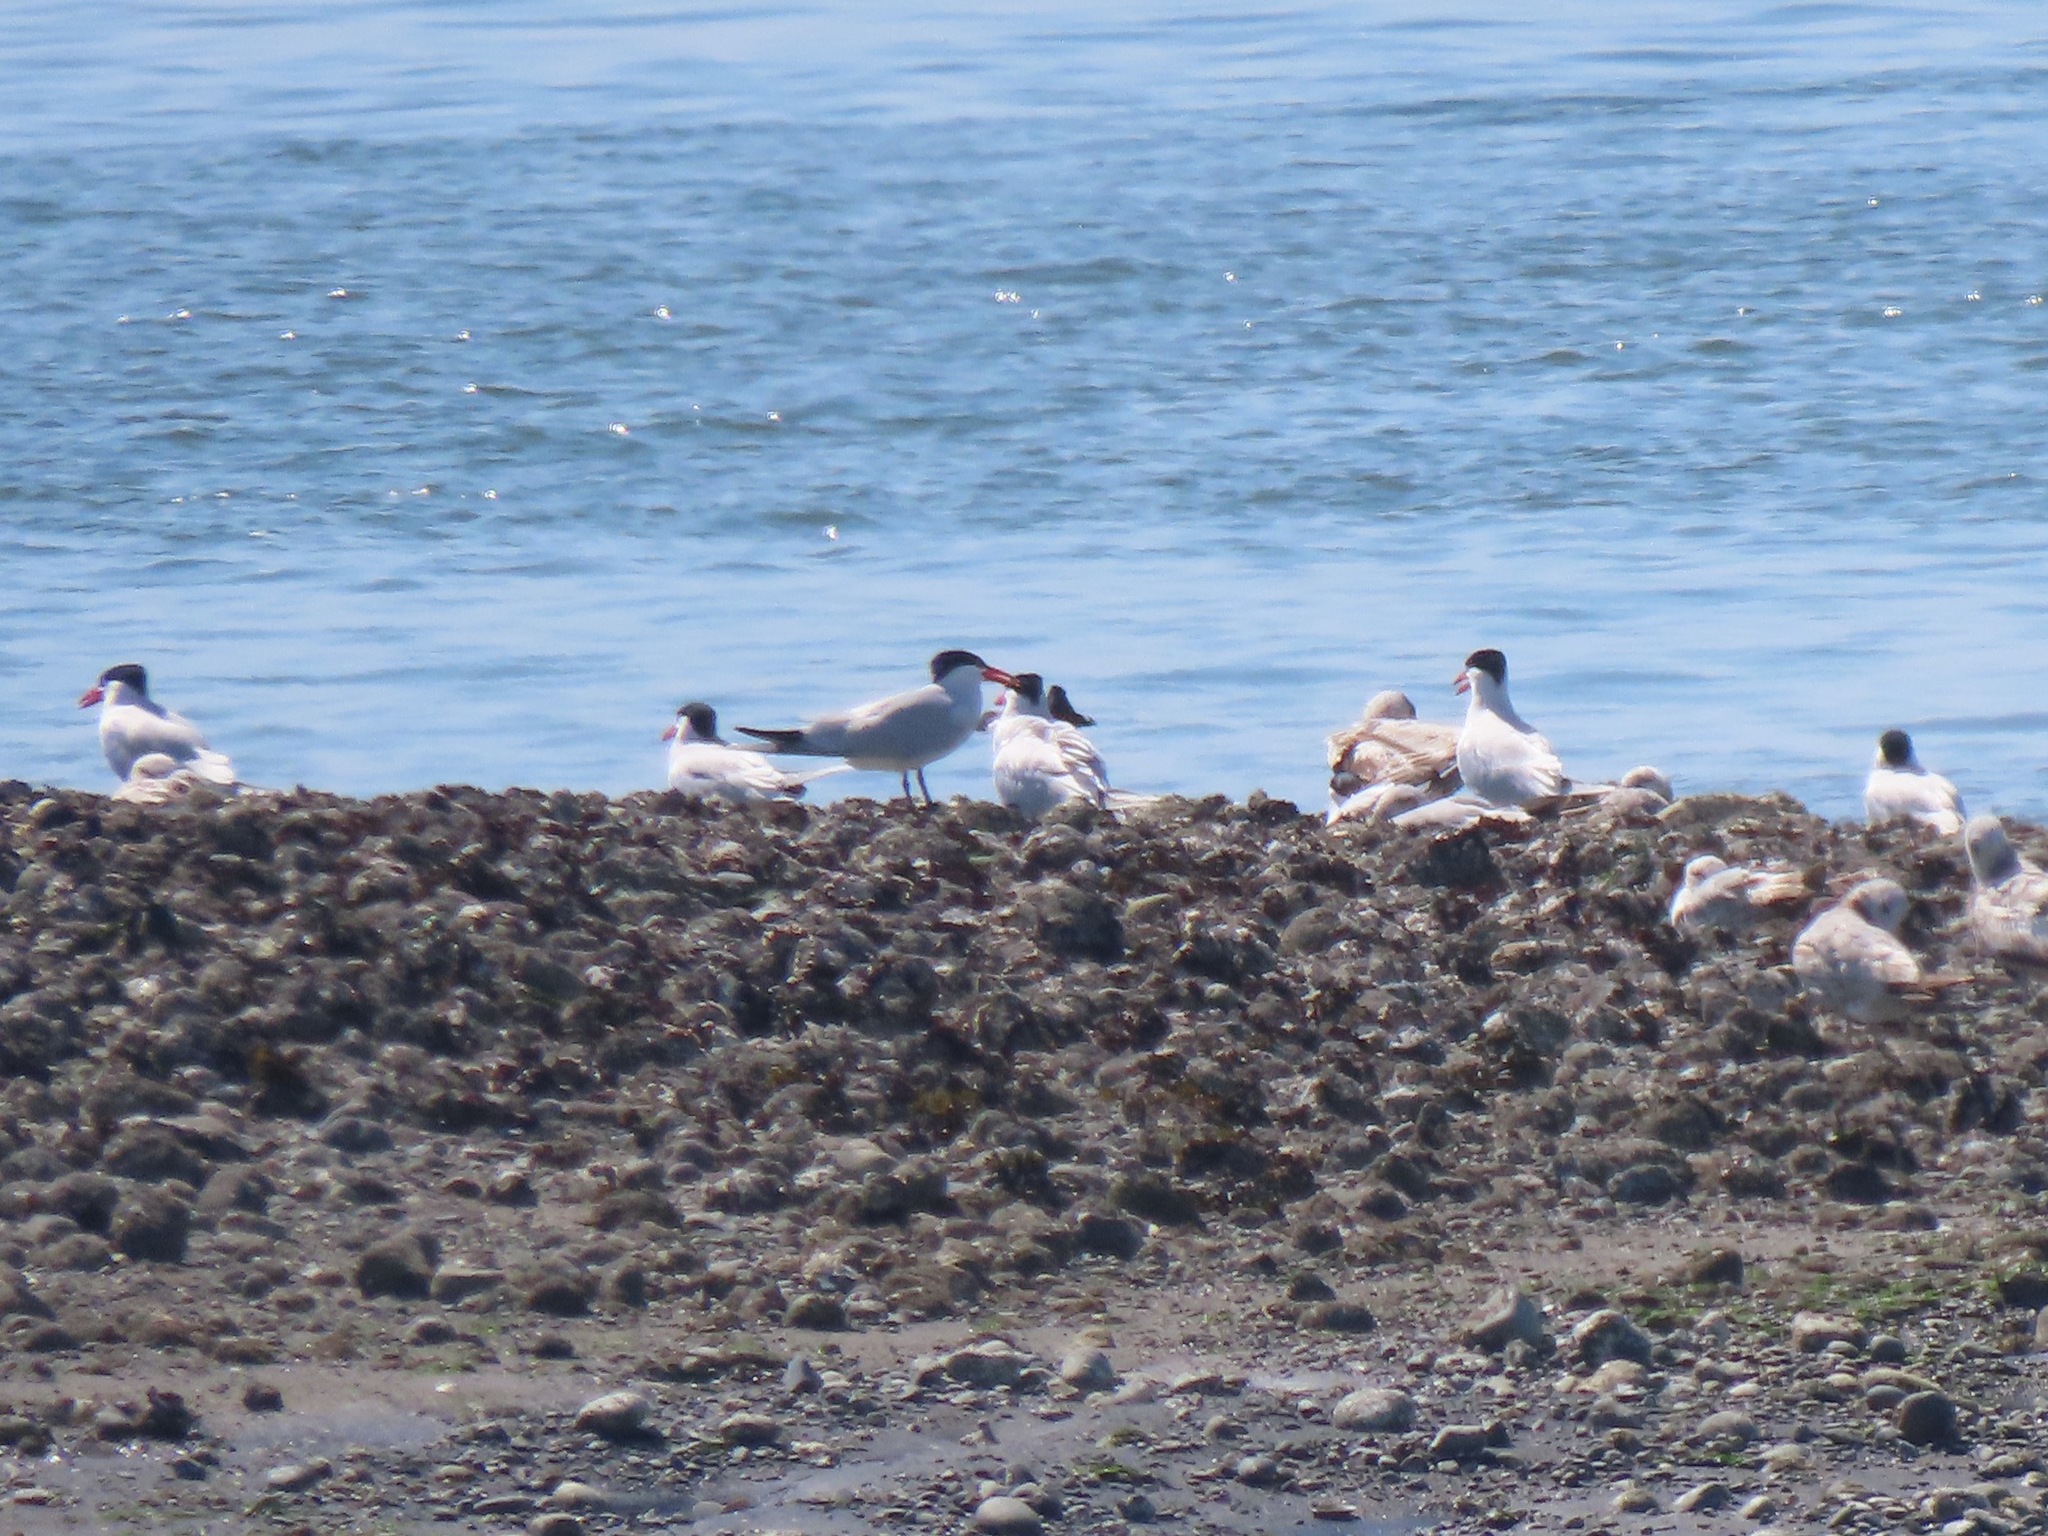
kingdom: Animalia
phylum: Chordata
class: Aves
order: Charadriiformes
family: Laridae
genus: Hydroprogne
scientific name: Hydroprogne caspia
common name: Caspian tern
